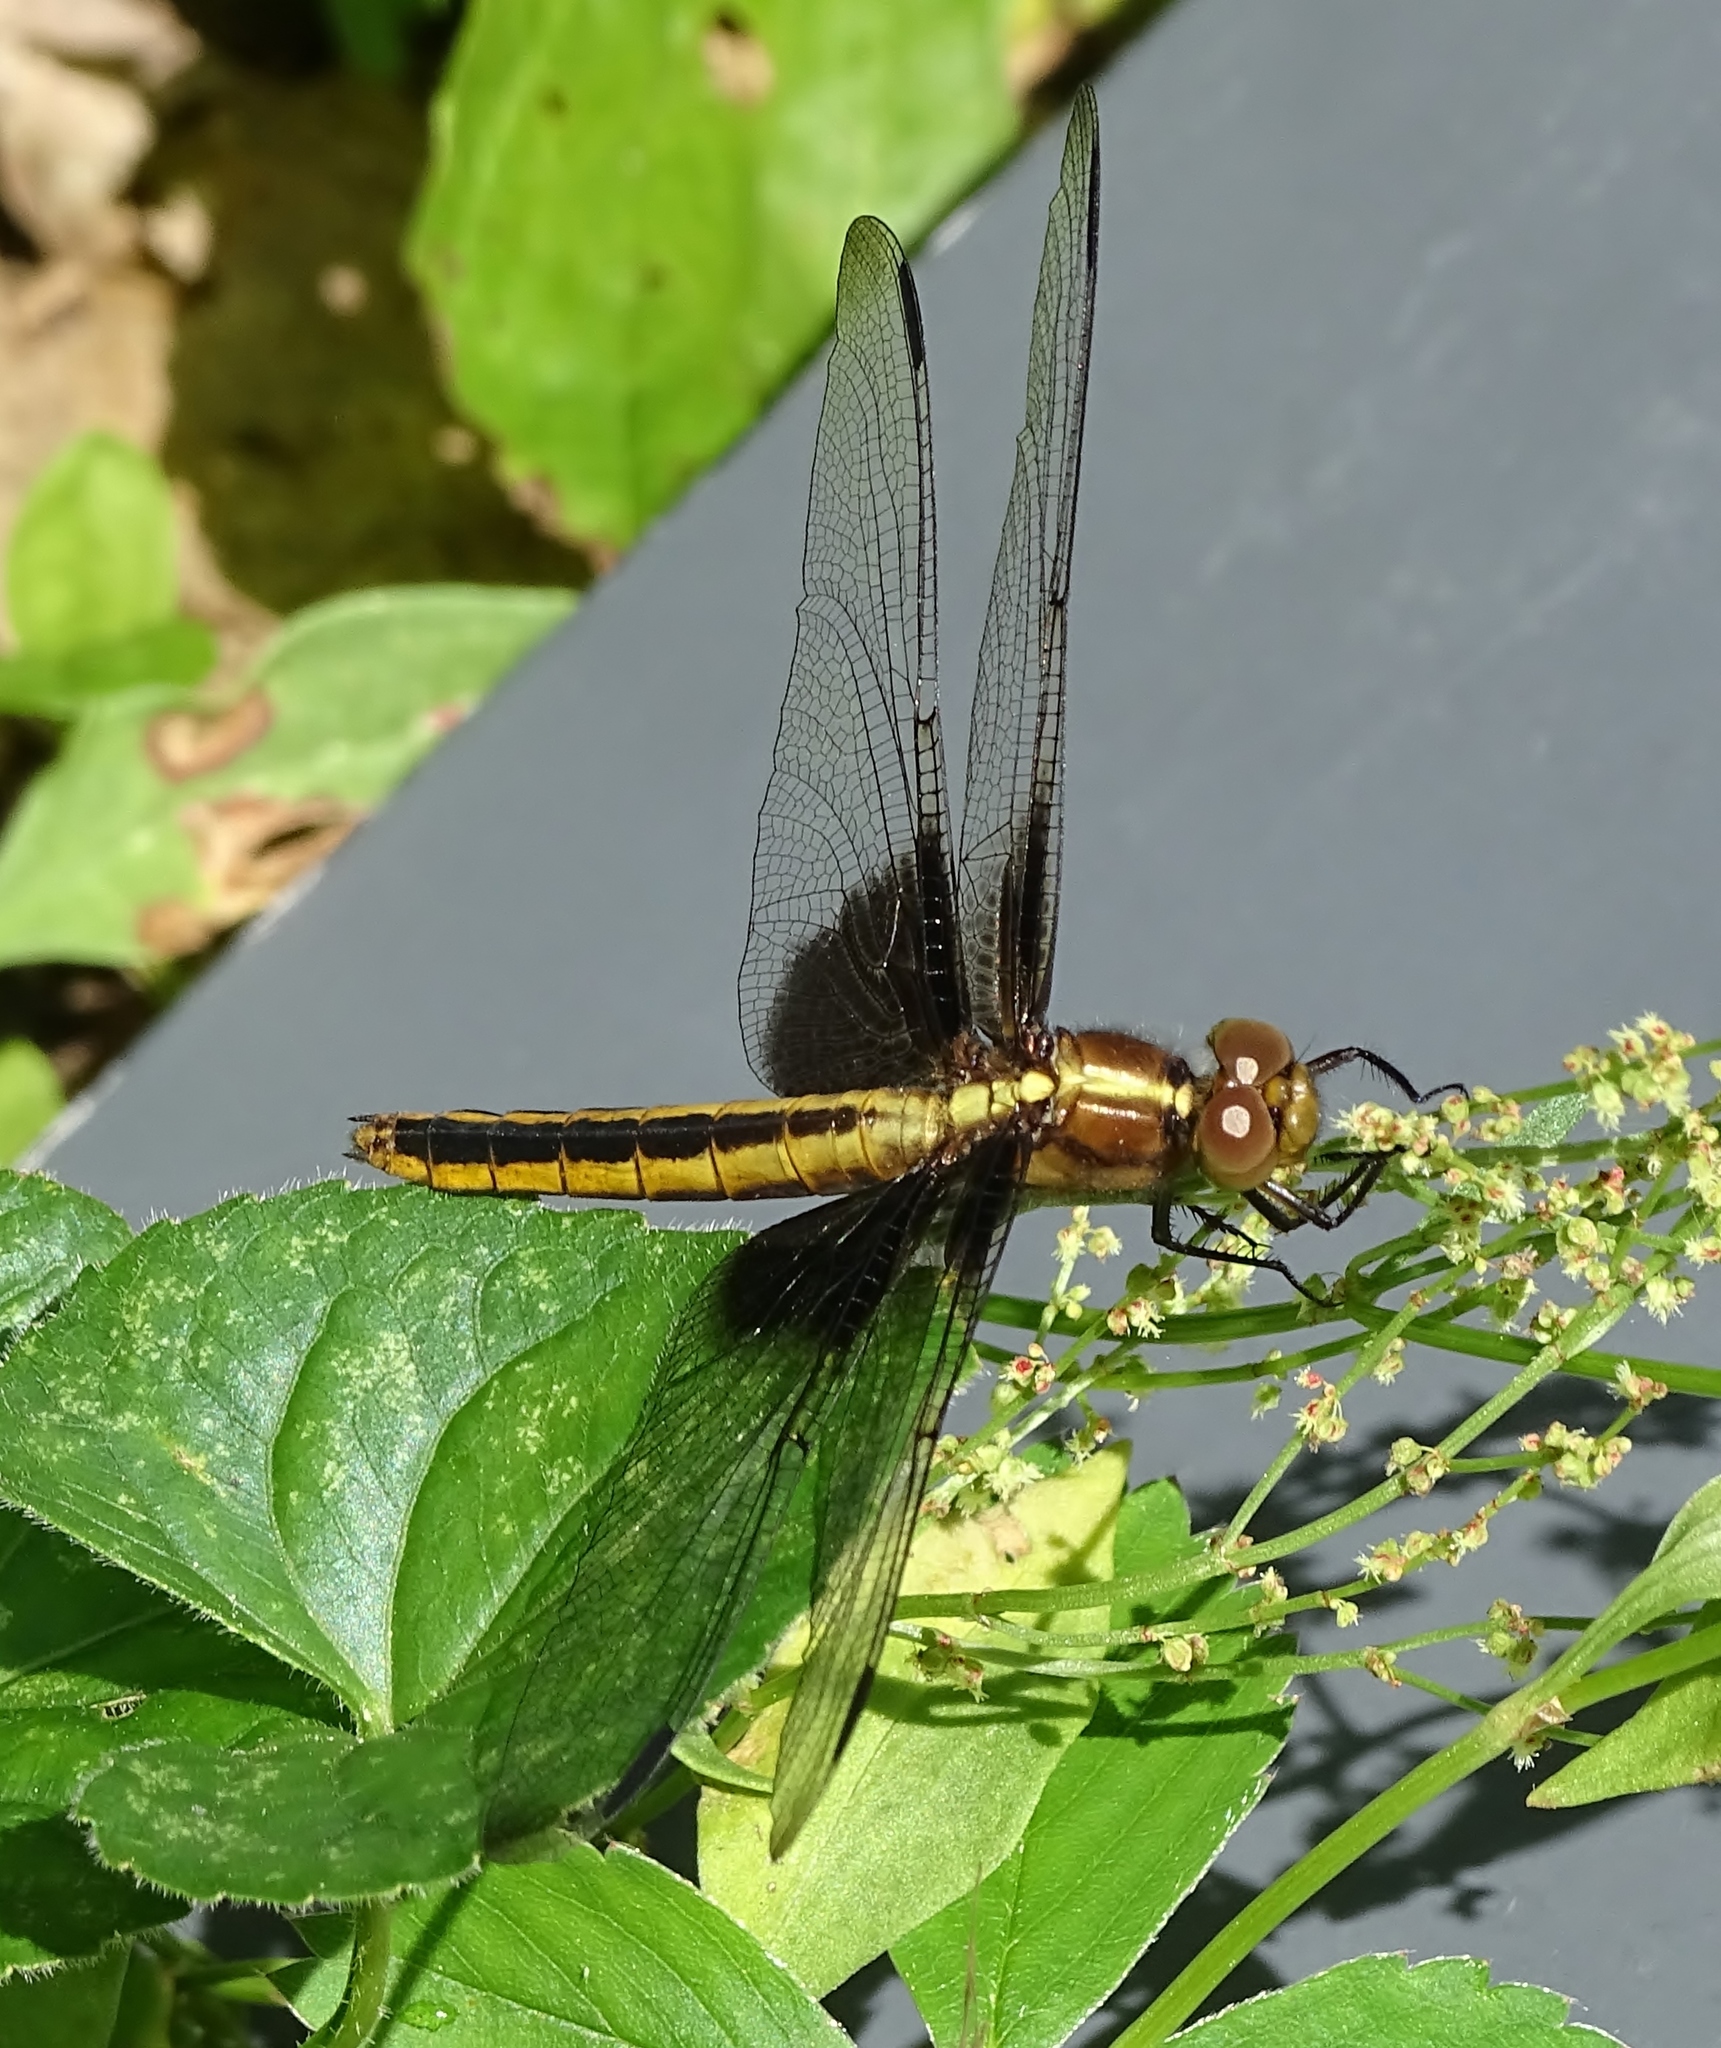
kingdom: Animalia
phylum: Arthropoda
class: Insecta
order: Odonata
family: Libellulidae
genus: Libellula
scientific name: Libellula luctuosa
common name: Widow skimmer
